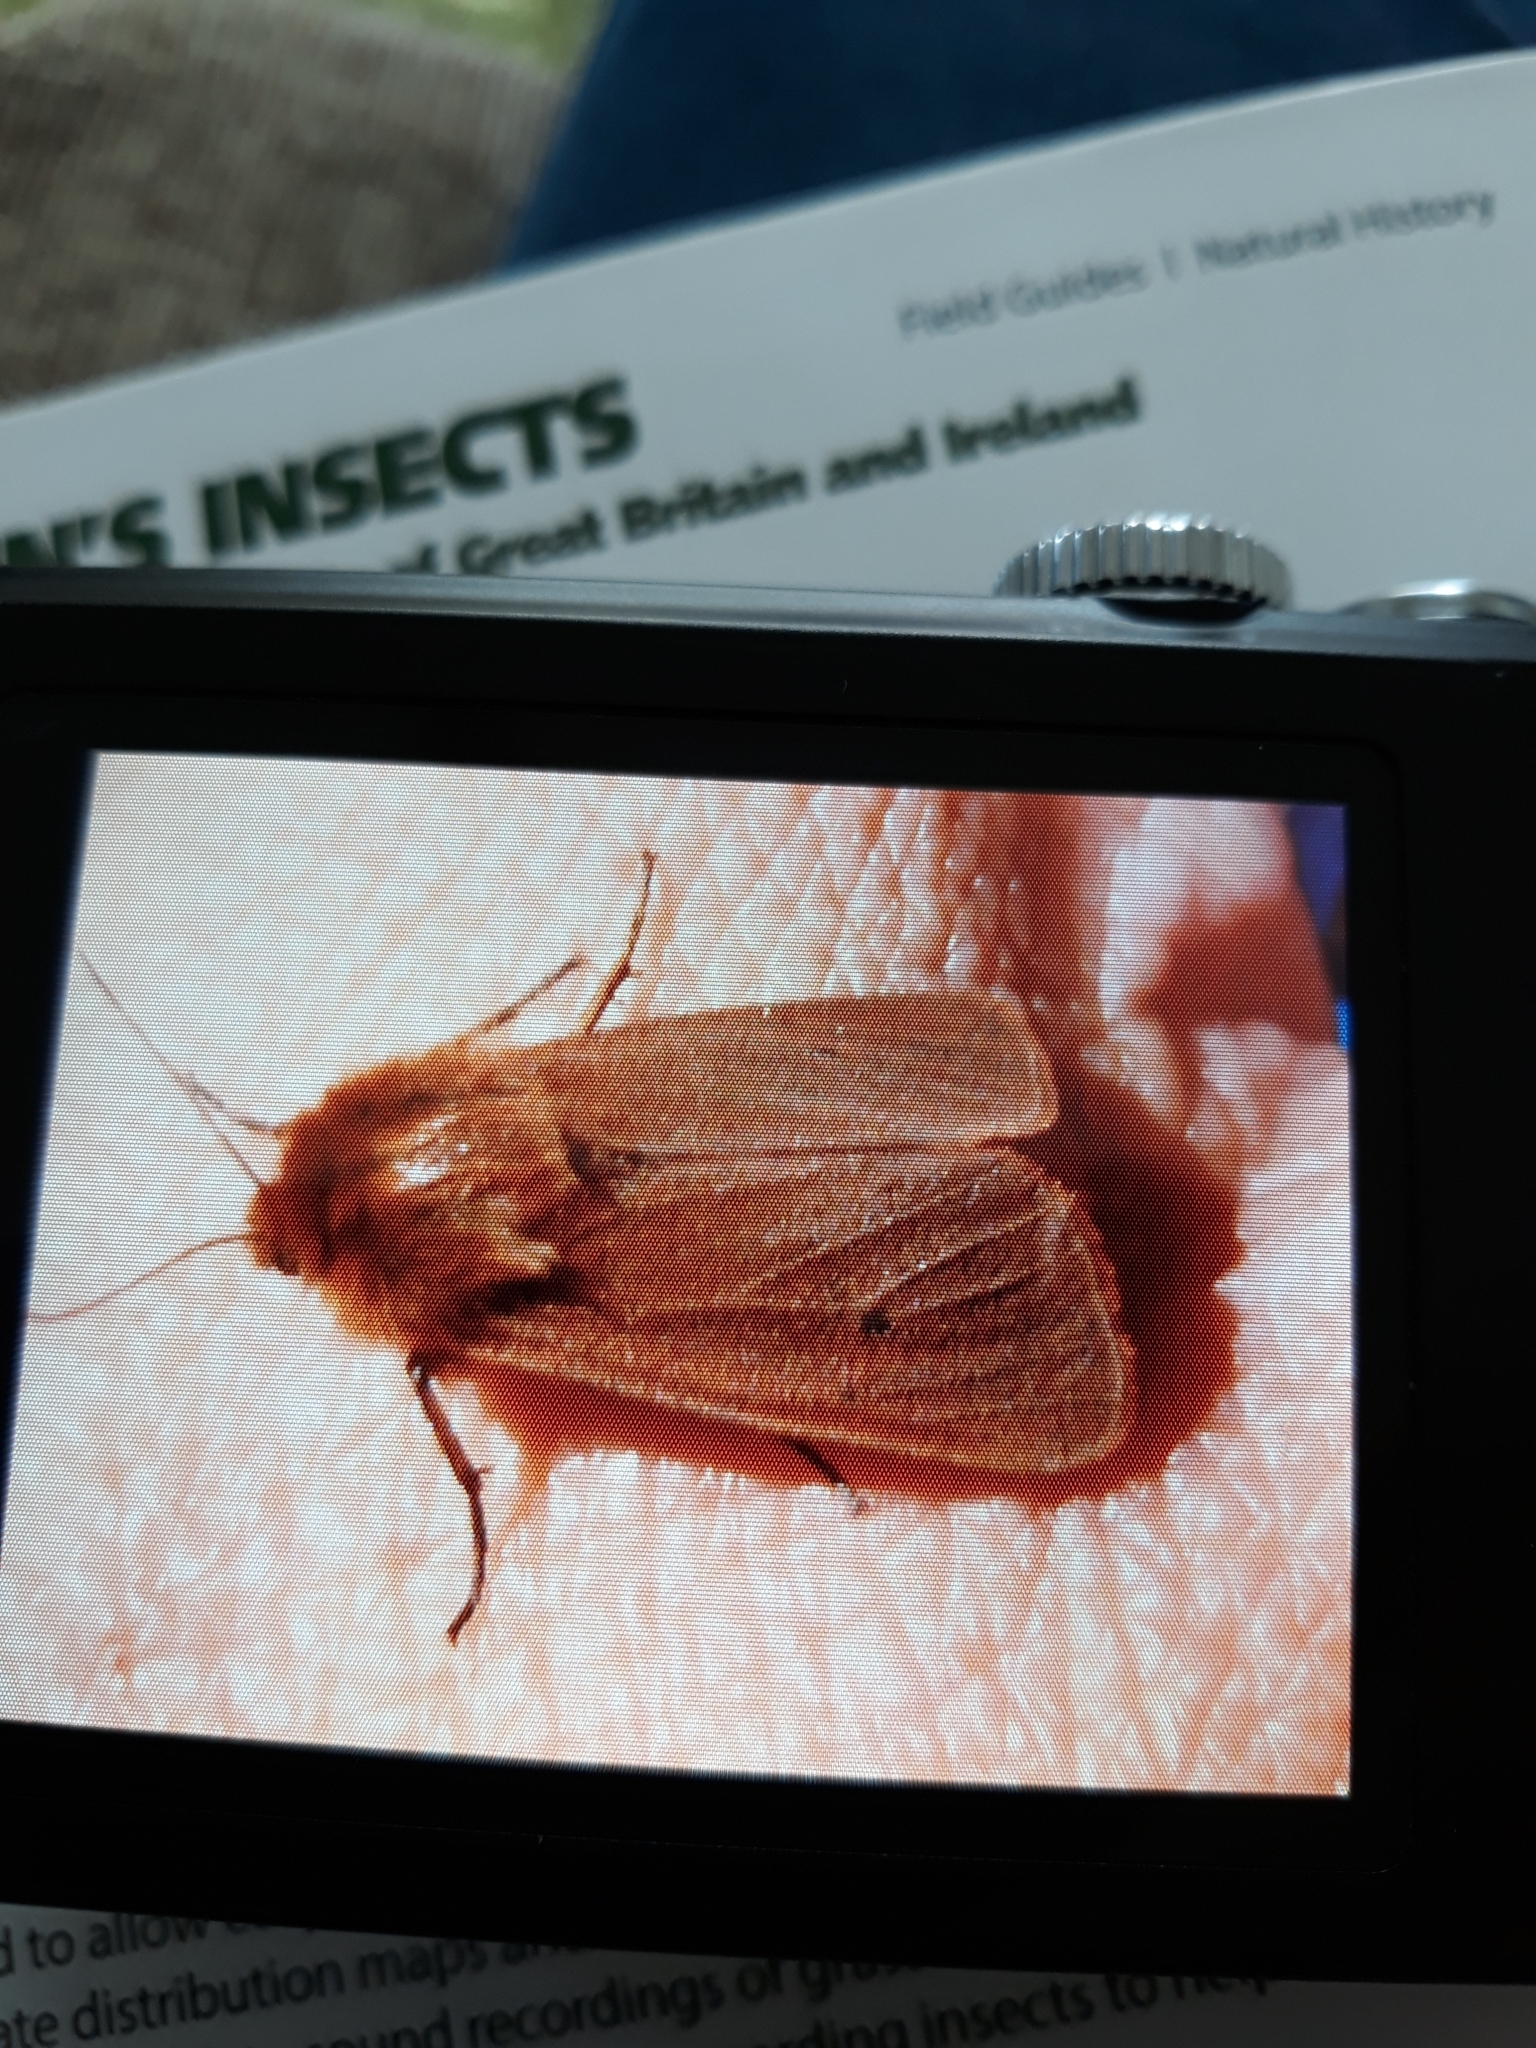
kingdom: Animalia
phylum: Arthropoda
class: Insecta
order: Lepidoptera
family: Erebidae
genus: Phragmatobia
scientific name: Phragmatobia fuliginosa
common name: Ruby tiger
